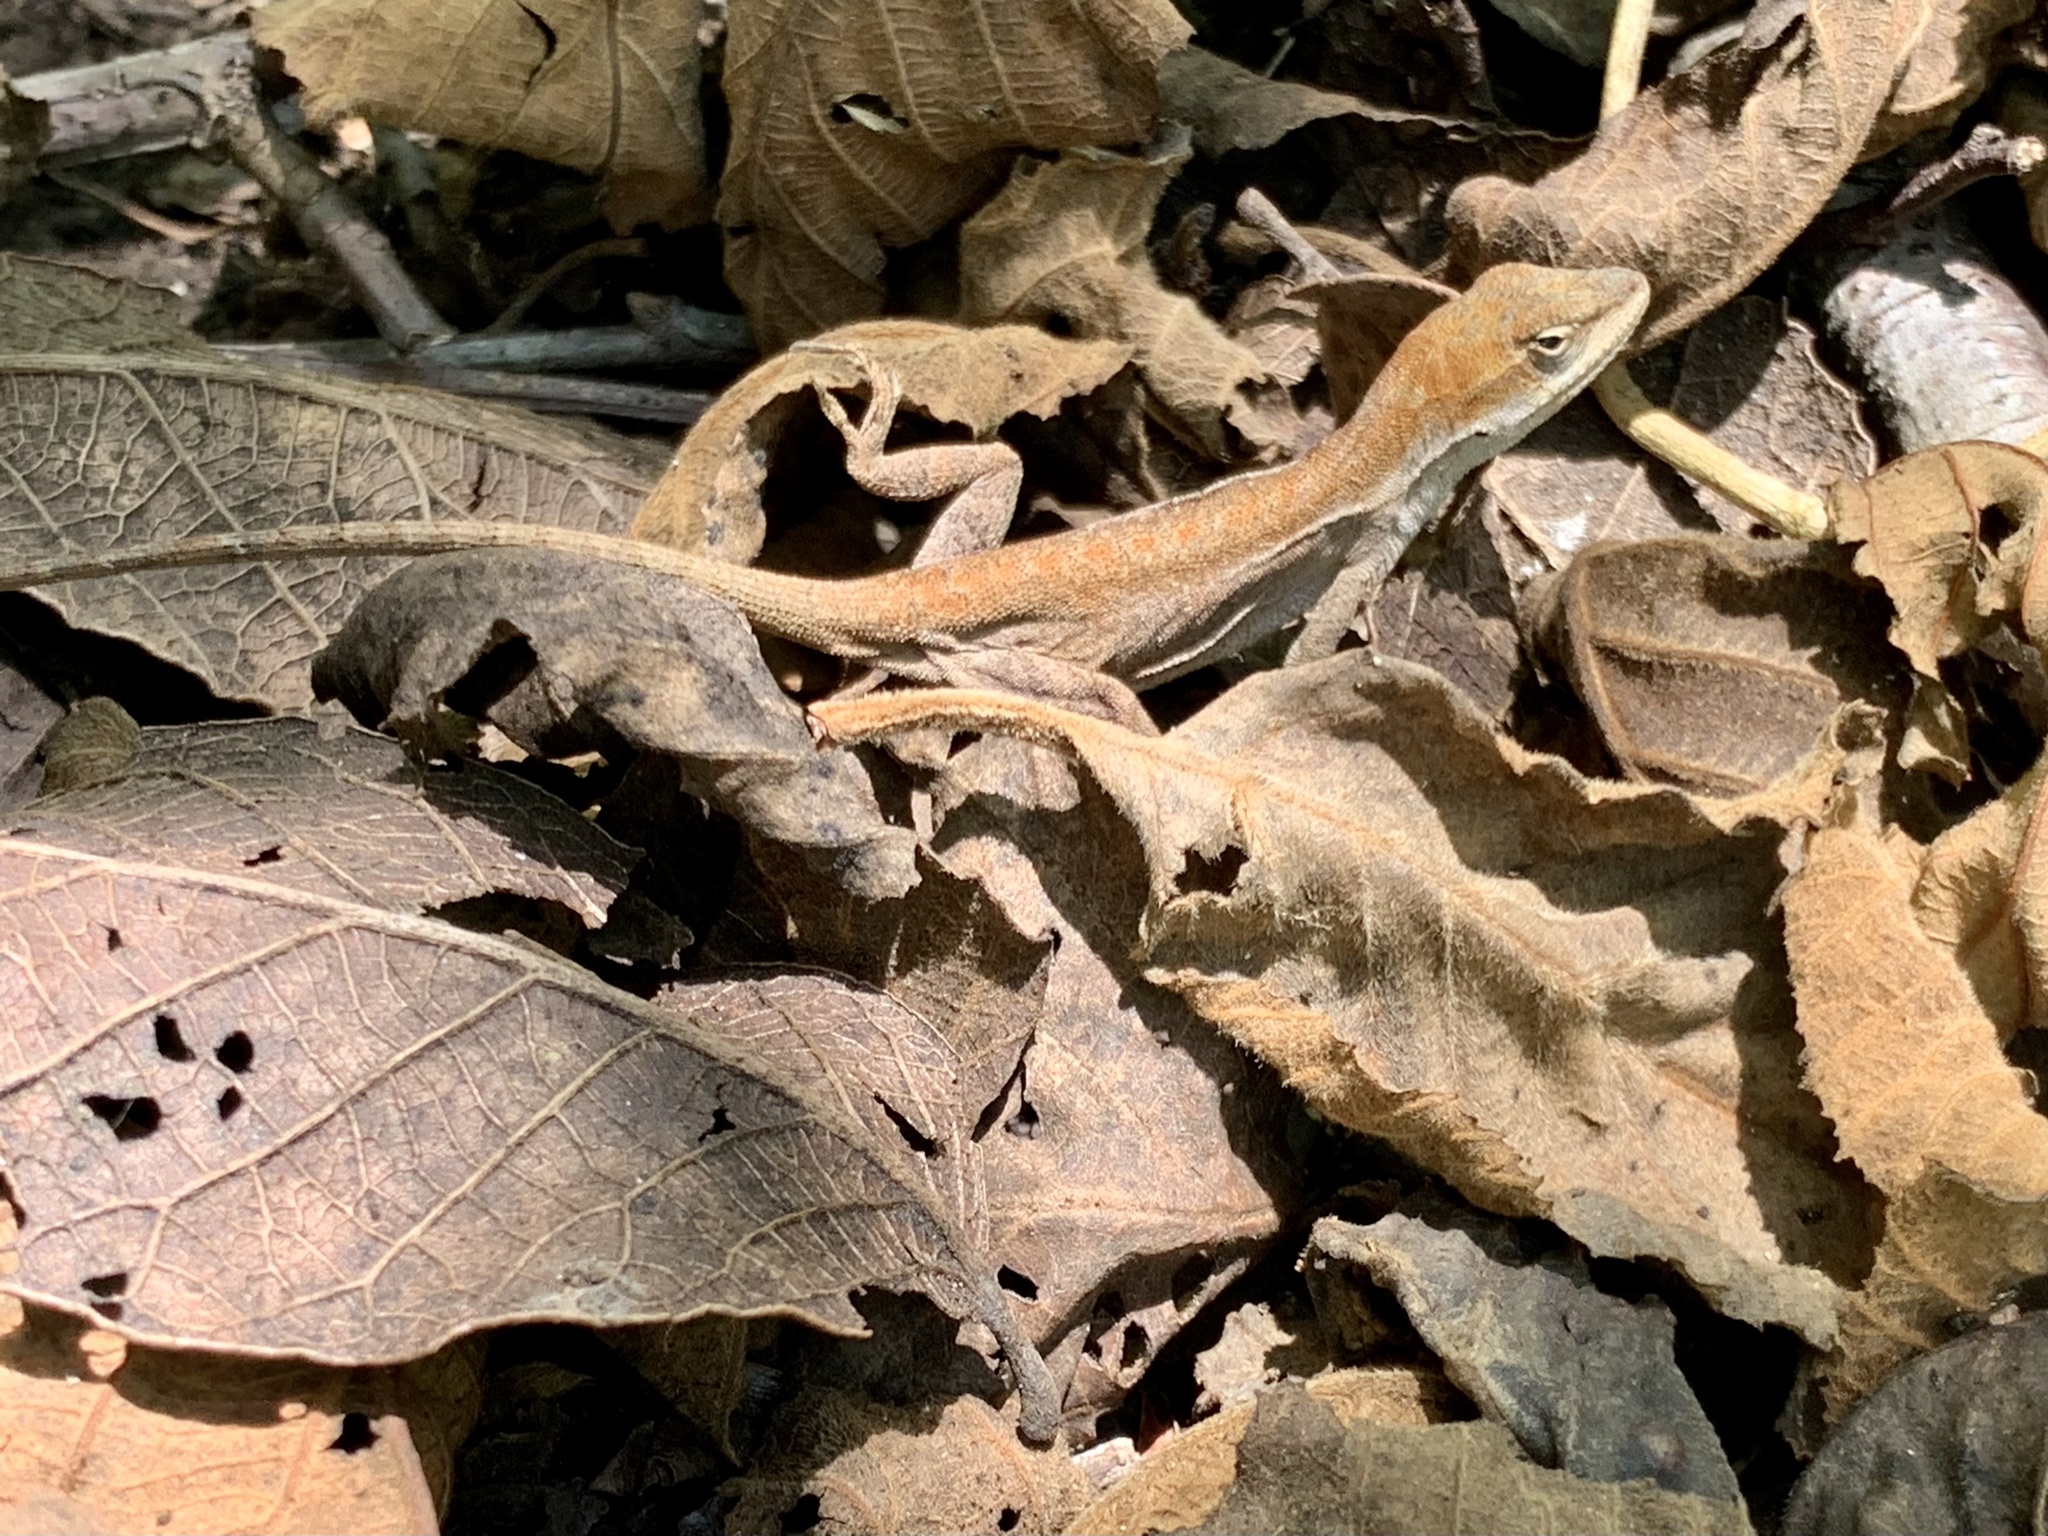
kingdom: Animalia
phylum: Chordata
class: Squamata
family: Dactyloidae
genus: Anolis
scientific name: Anolis anisolepis
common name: Chiapas ornate anole
